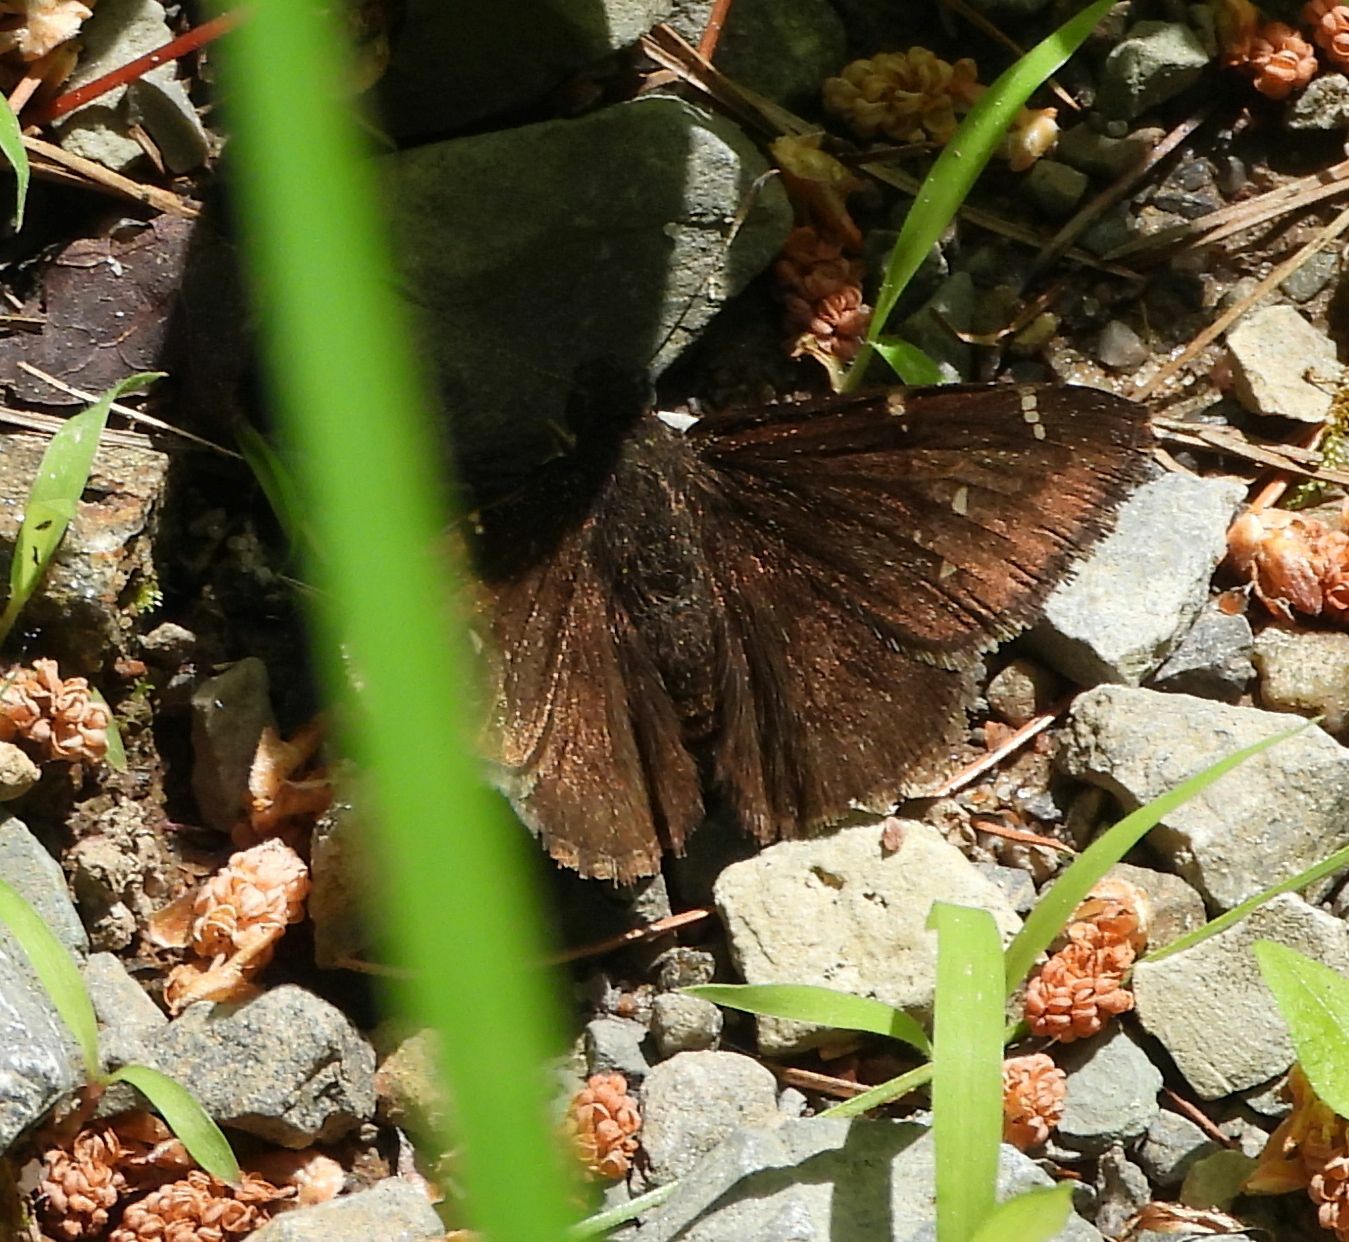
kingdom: Animalia
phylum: Arthropoda
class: Insecta
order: Lepidoptera
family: Hesperiidae
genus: Thorybes
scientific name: Thorybes pylades
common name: Northern cloudywing
